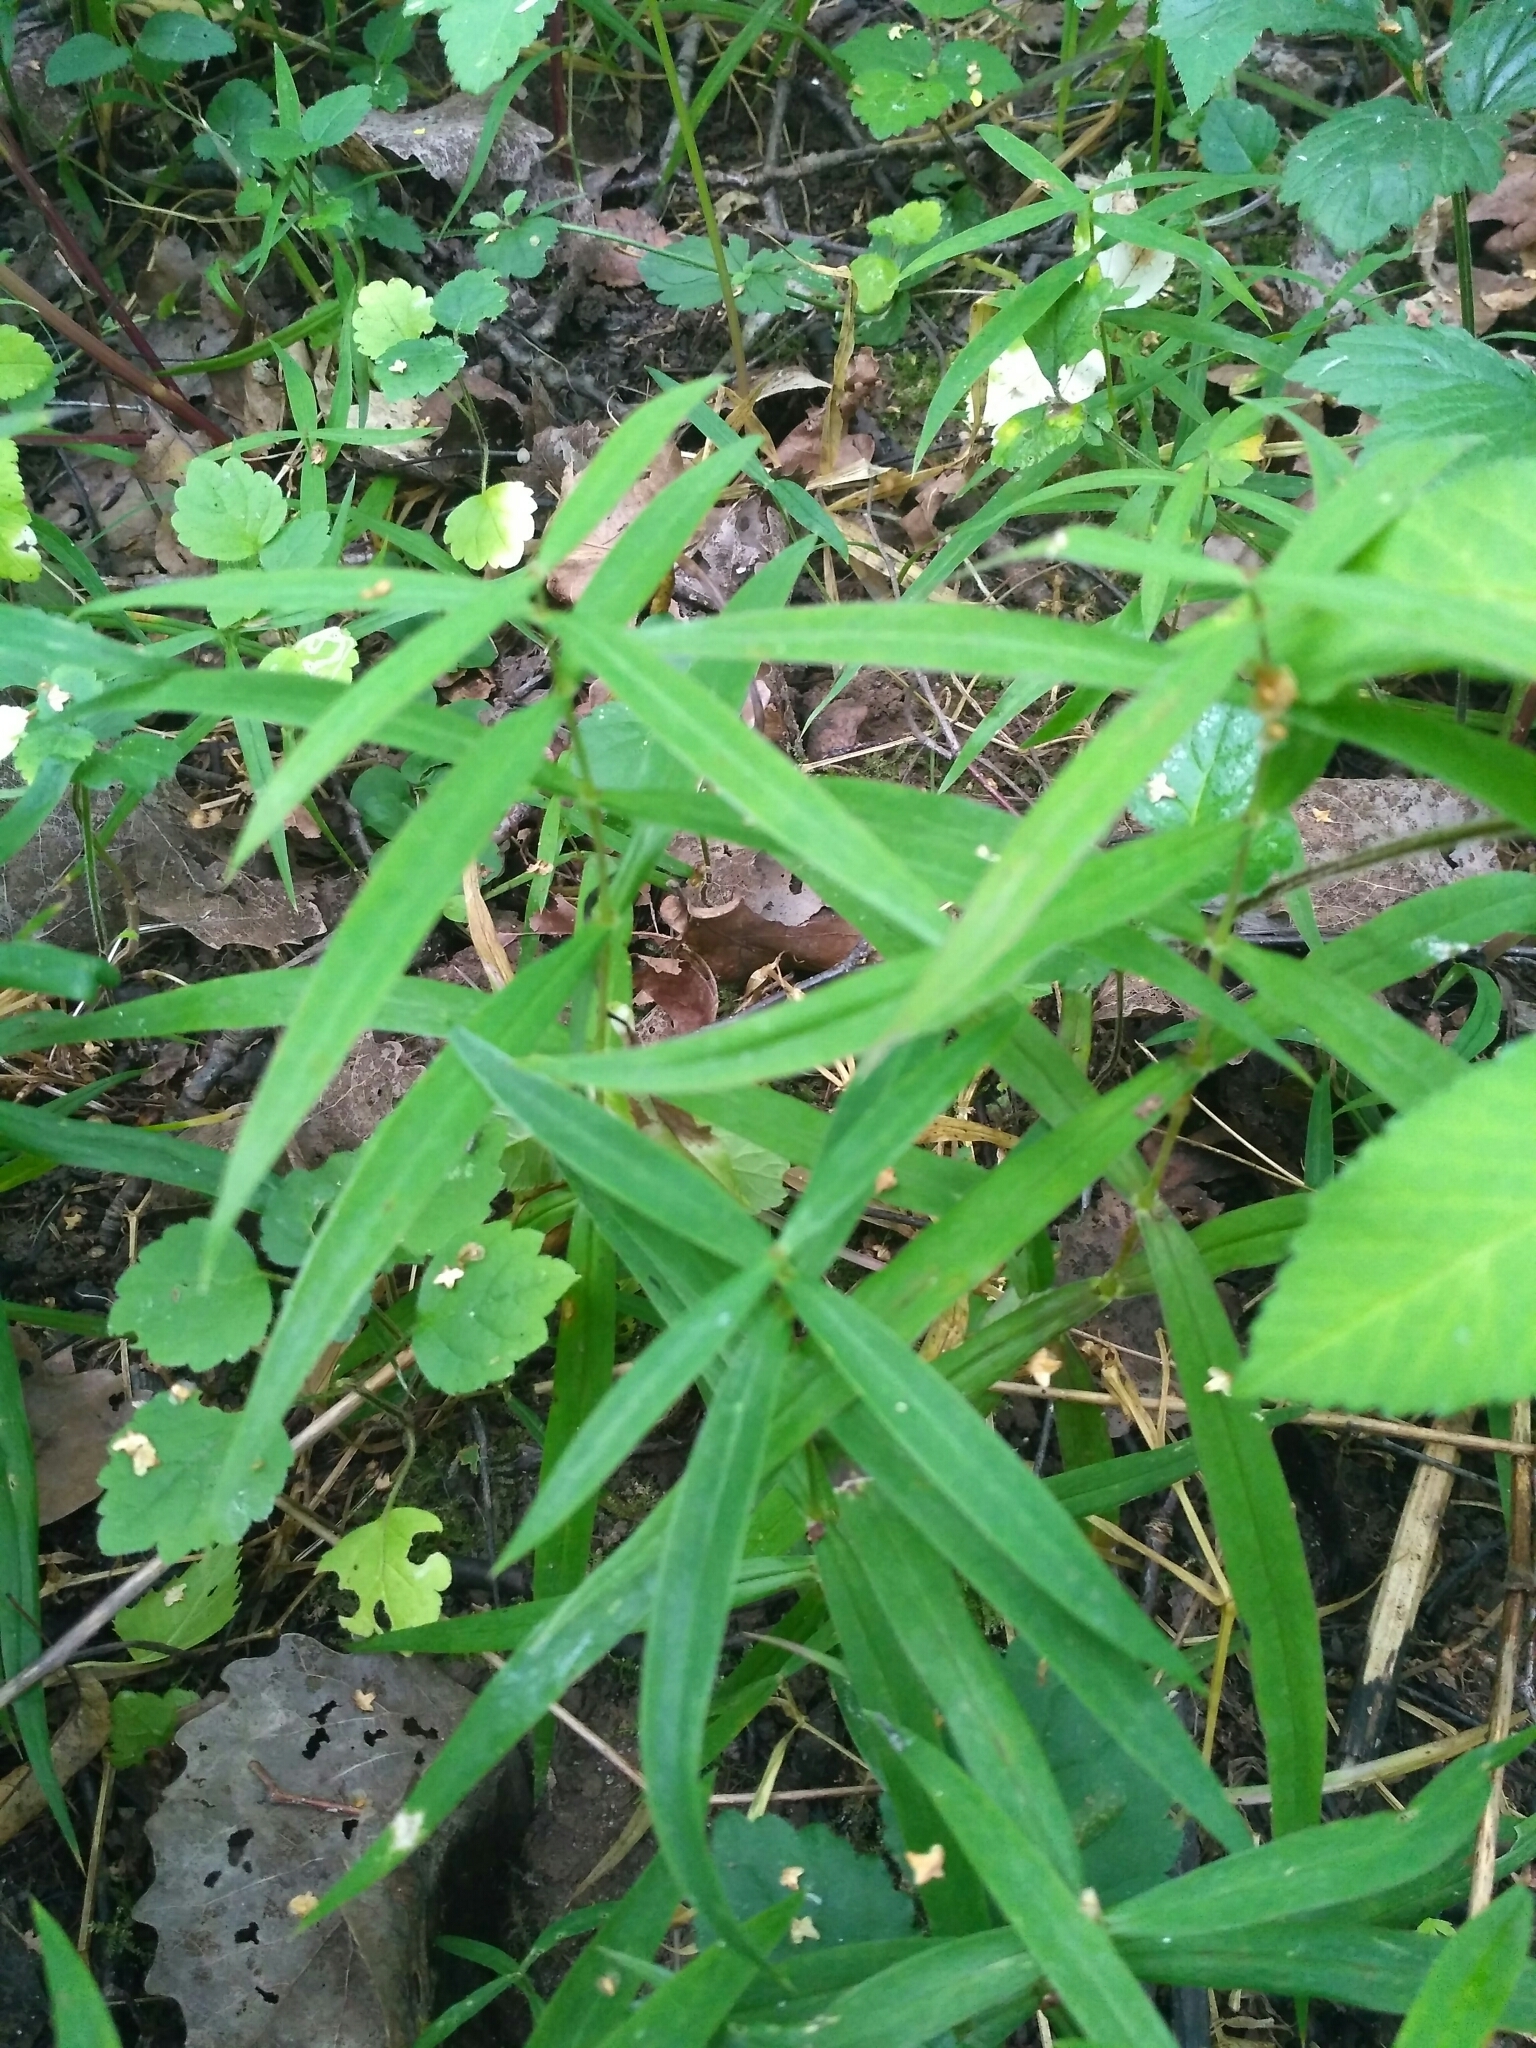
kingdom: Plantae
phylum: Tracheophyta
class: Magnoliopsida
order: Caryophyllales
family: Caryophyllaceae
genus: Rabelera
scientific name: Rabelera holostea
